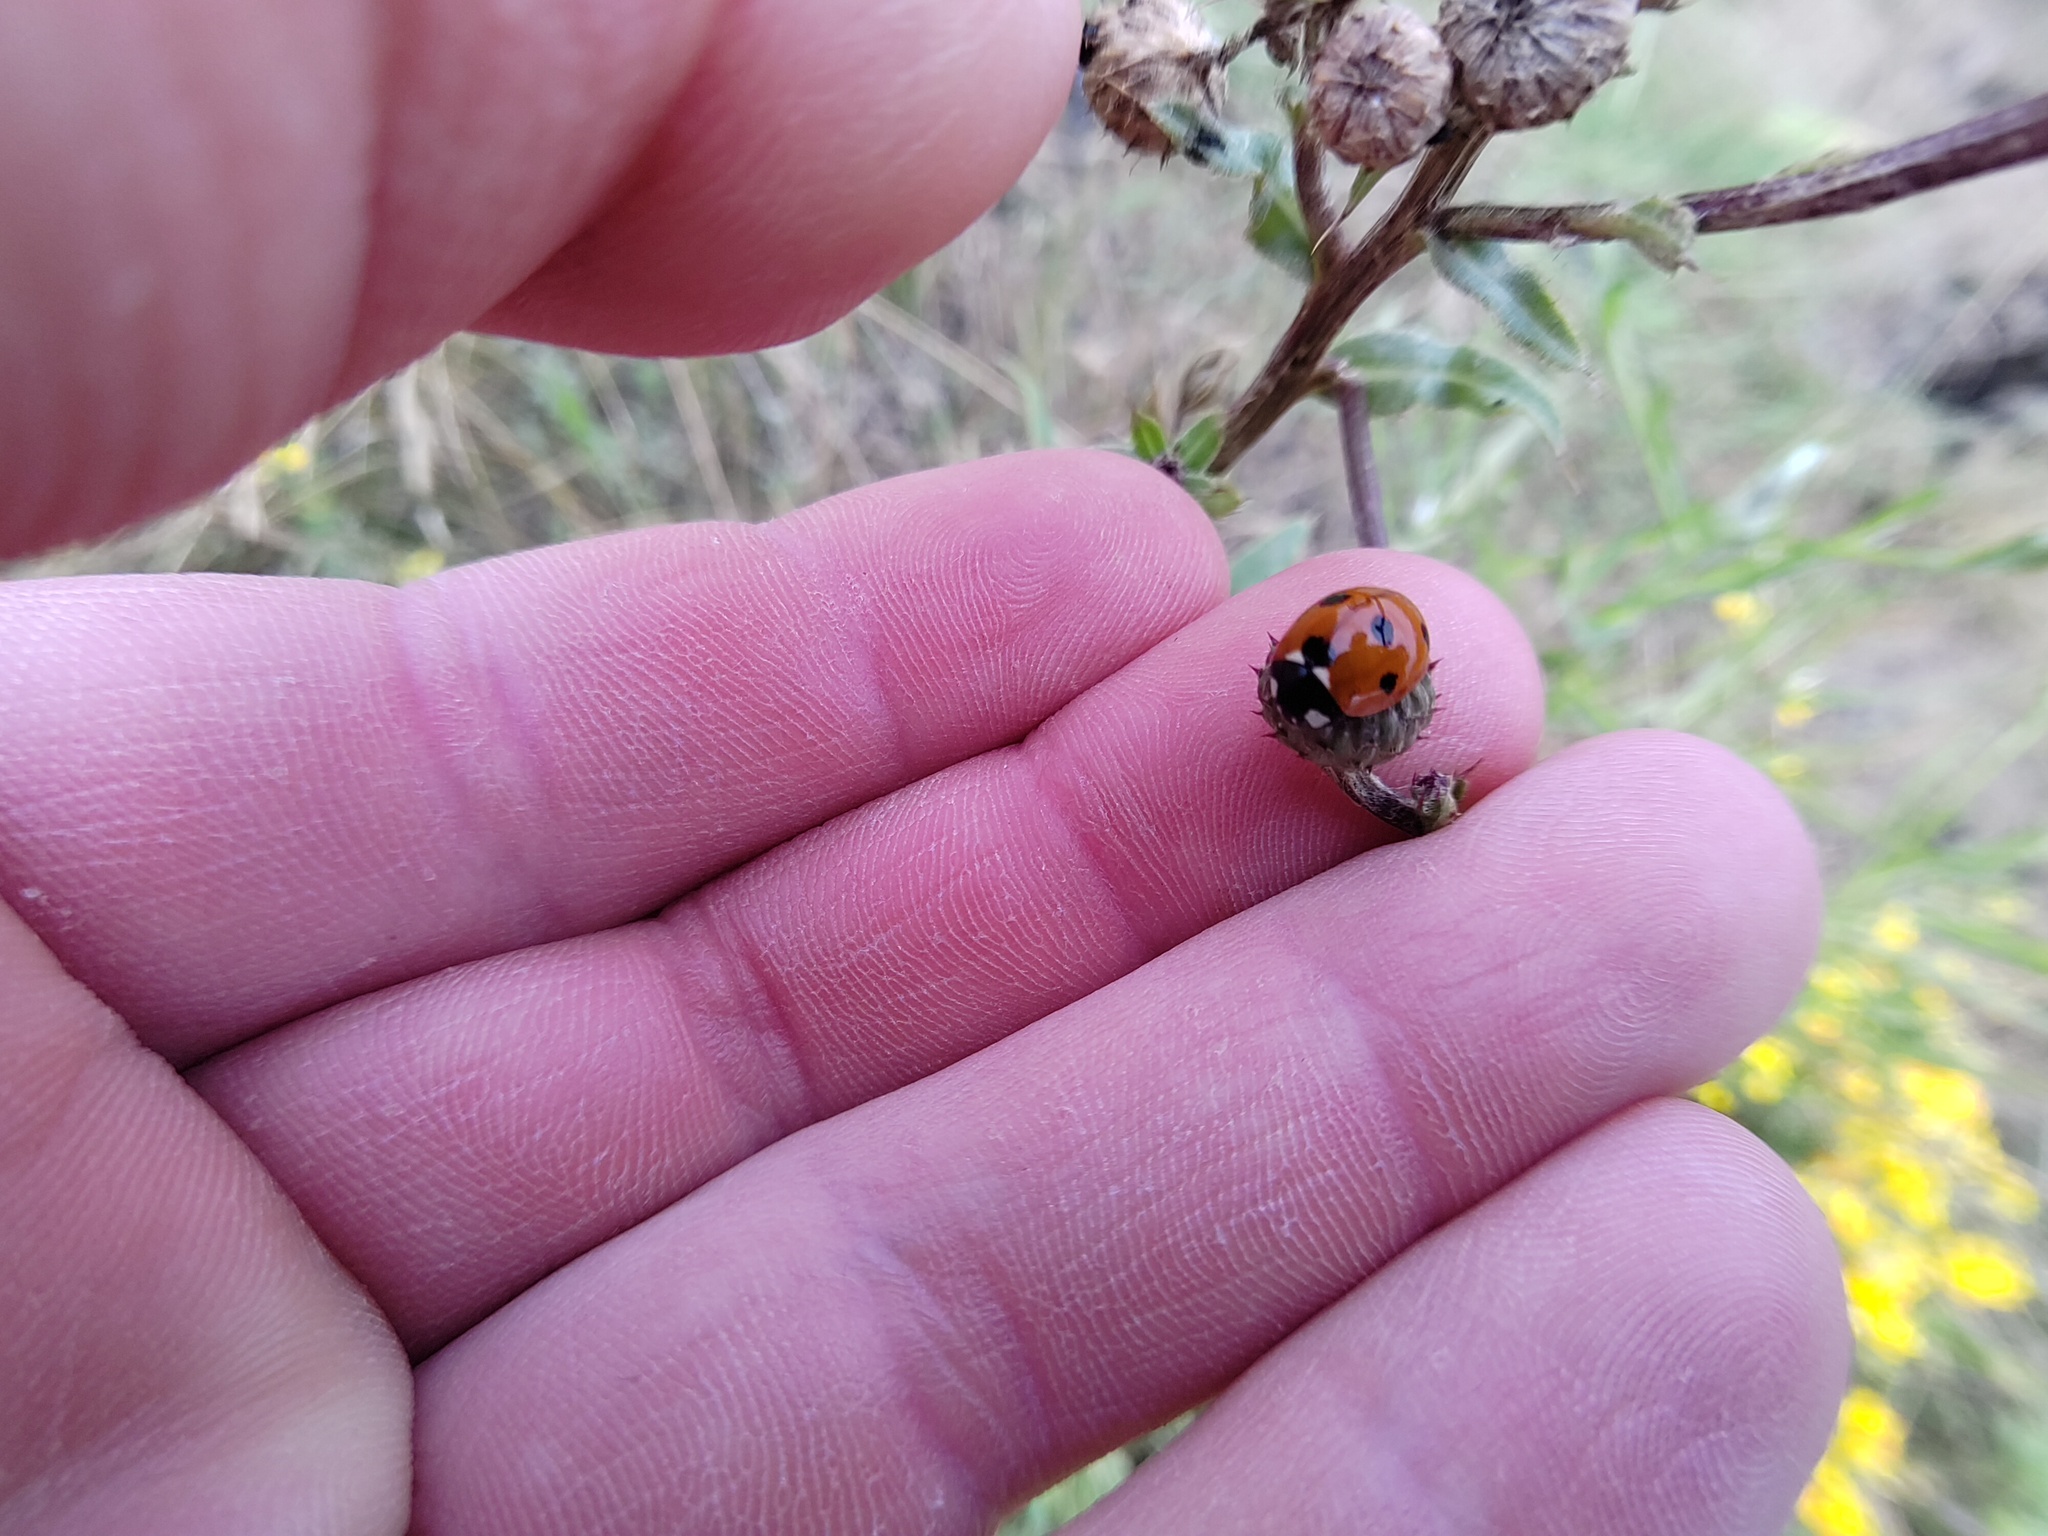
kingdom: Animalia
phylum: Arthropoda
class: Insecta
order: Coleoptera
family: Coccinellidae
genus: Coccinella
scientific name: Coccinella septempunctata
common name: Sevenspotted lady beetle
